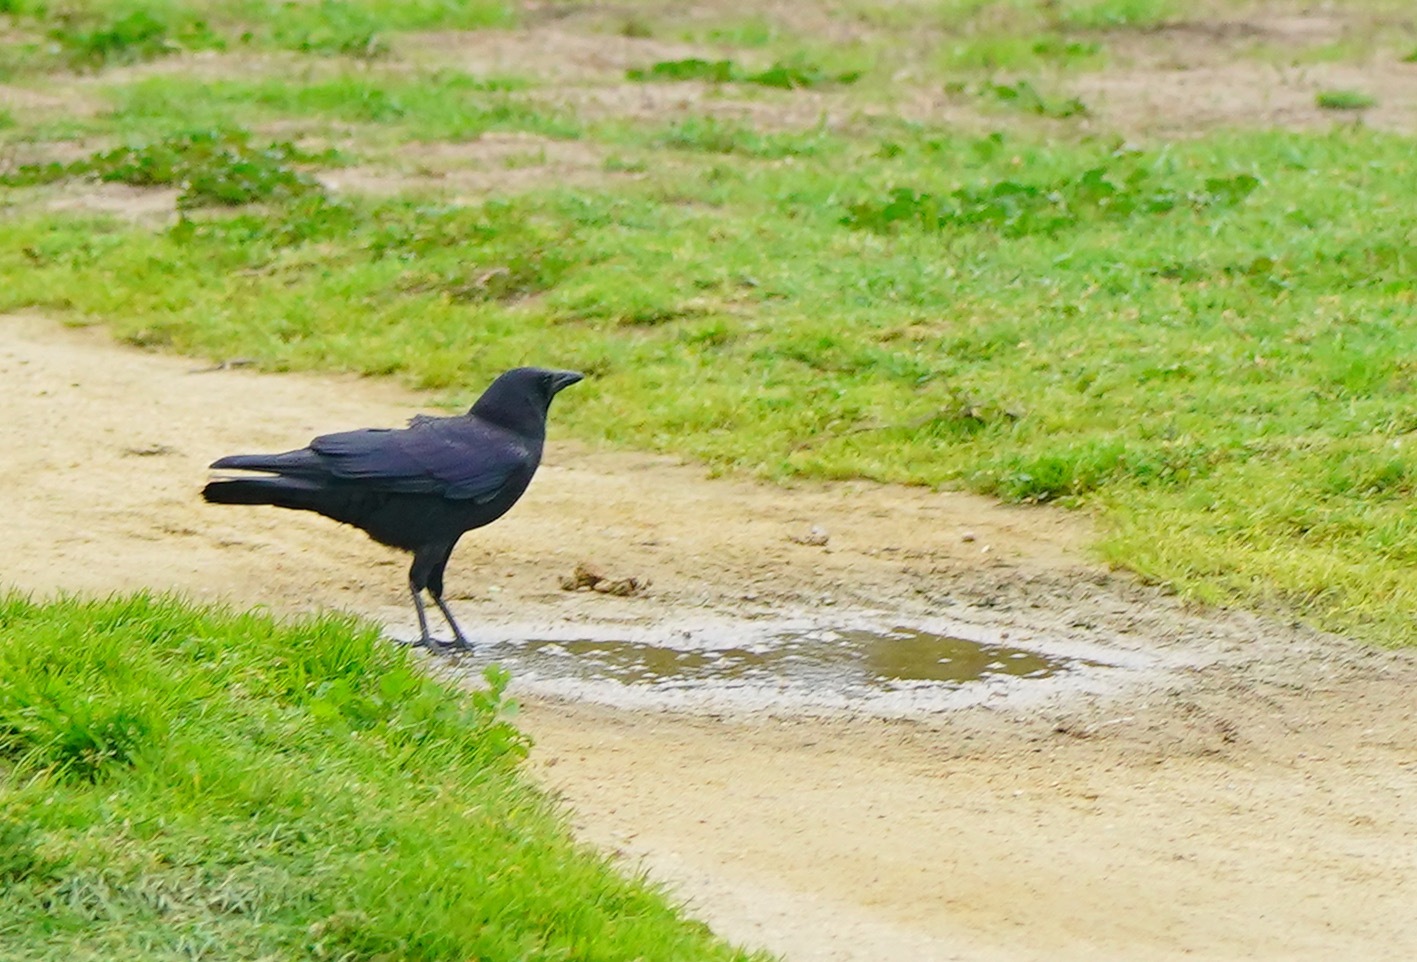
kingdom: Animalia
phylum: Chordata
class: Aves
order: Passeriformes
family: Corvidae
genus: Corvus
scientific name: Corvus brachyrhynchos
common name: American crow
